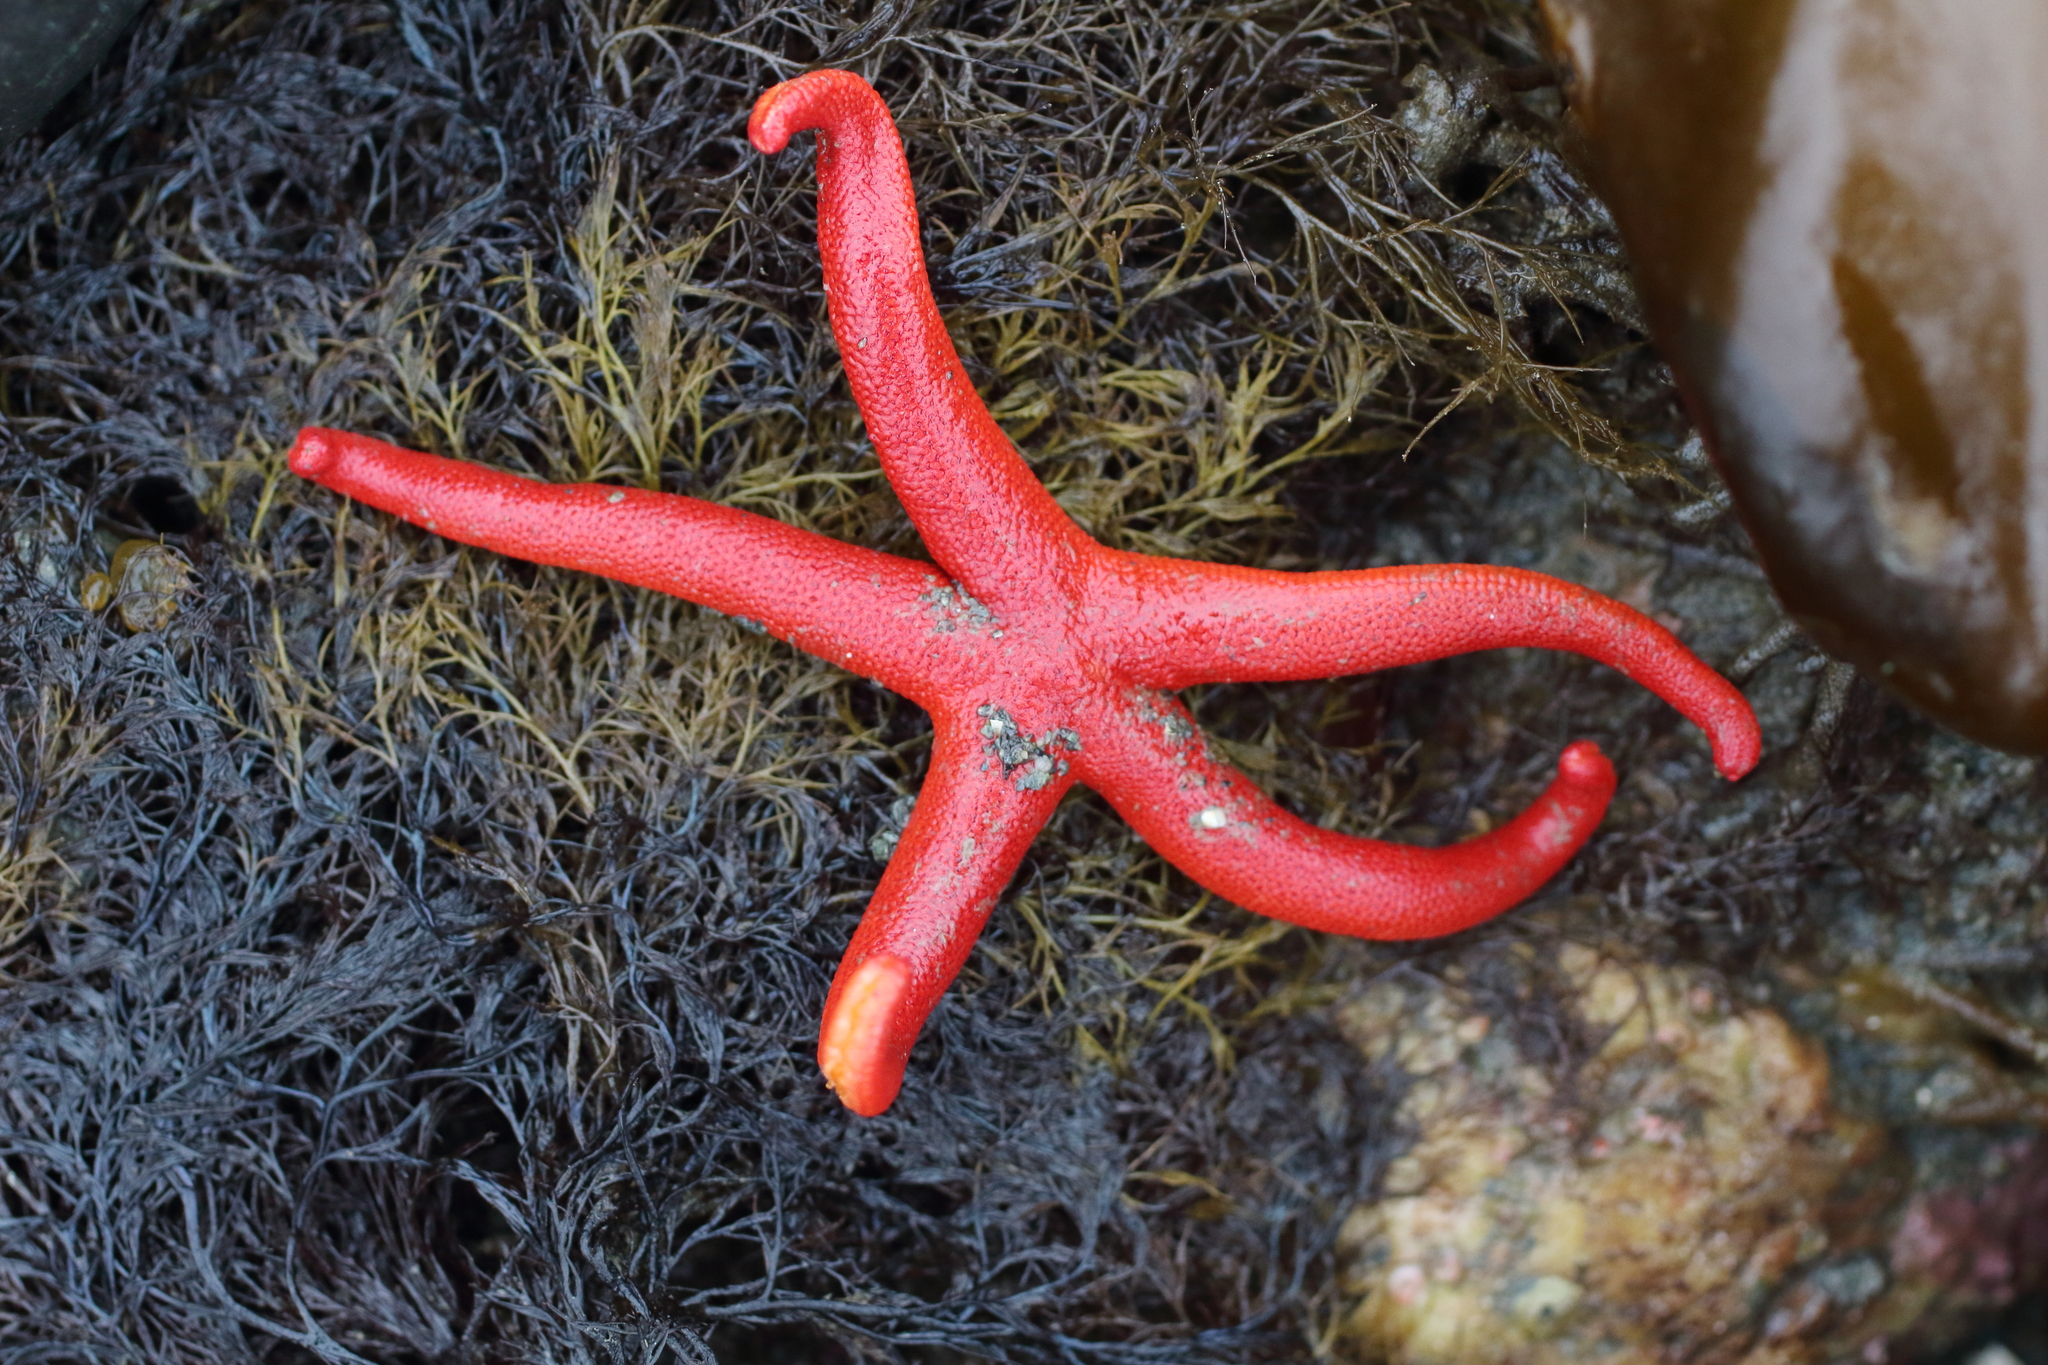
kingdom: Animalia
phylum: Echinodermata
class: Asteroidea
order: Spinulosida
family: Echinasteridae
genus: Henricia
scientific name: Henricia leviuscula
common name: Pacific blood star
